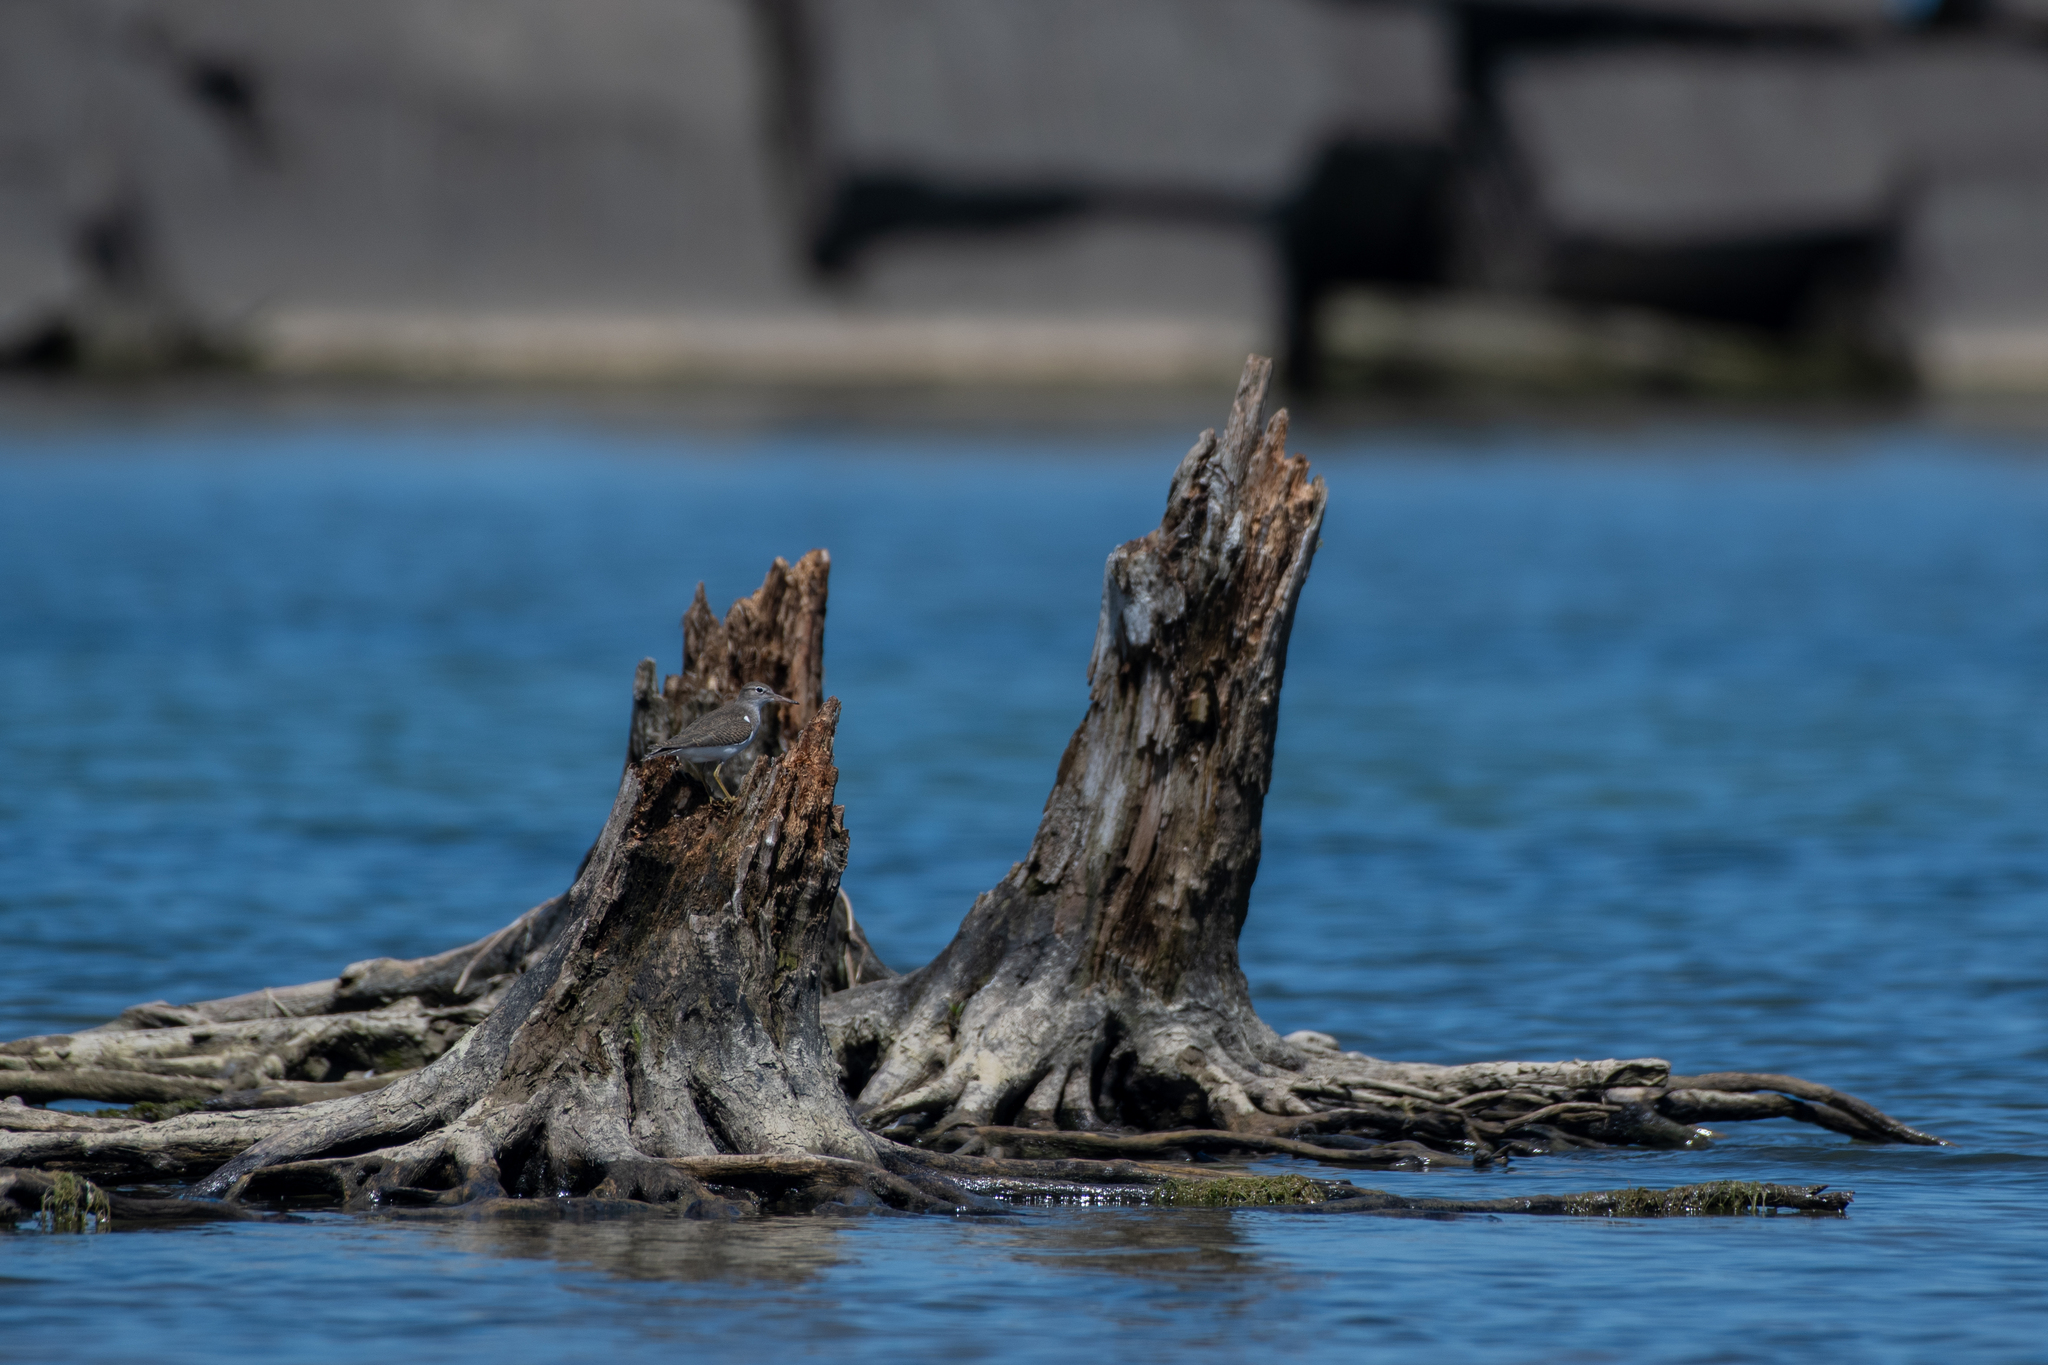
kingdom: Animalia
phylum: Chordata
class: Aves
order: Charadriiformes
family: Scolopacidae
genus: Actitis
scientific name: Actitis macularius
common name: Spotted sandpiper
